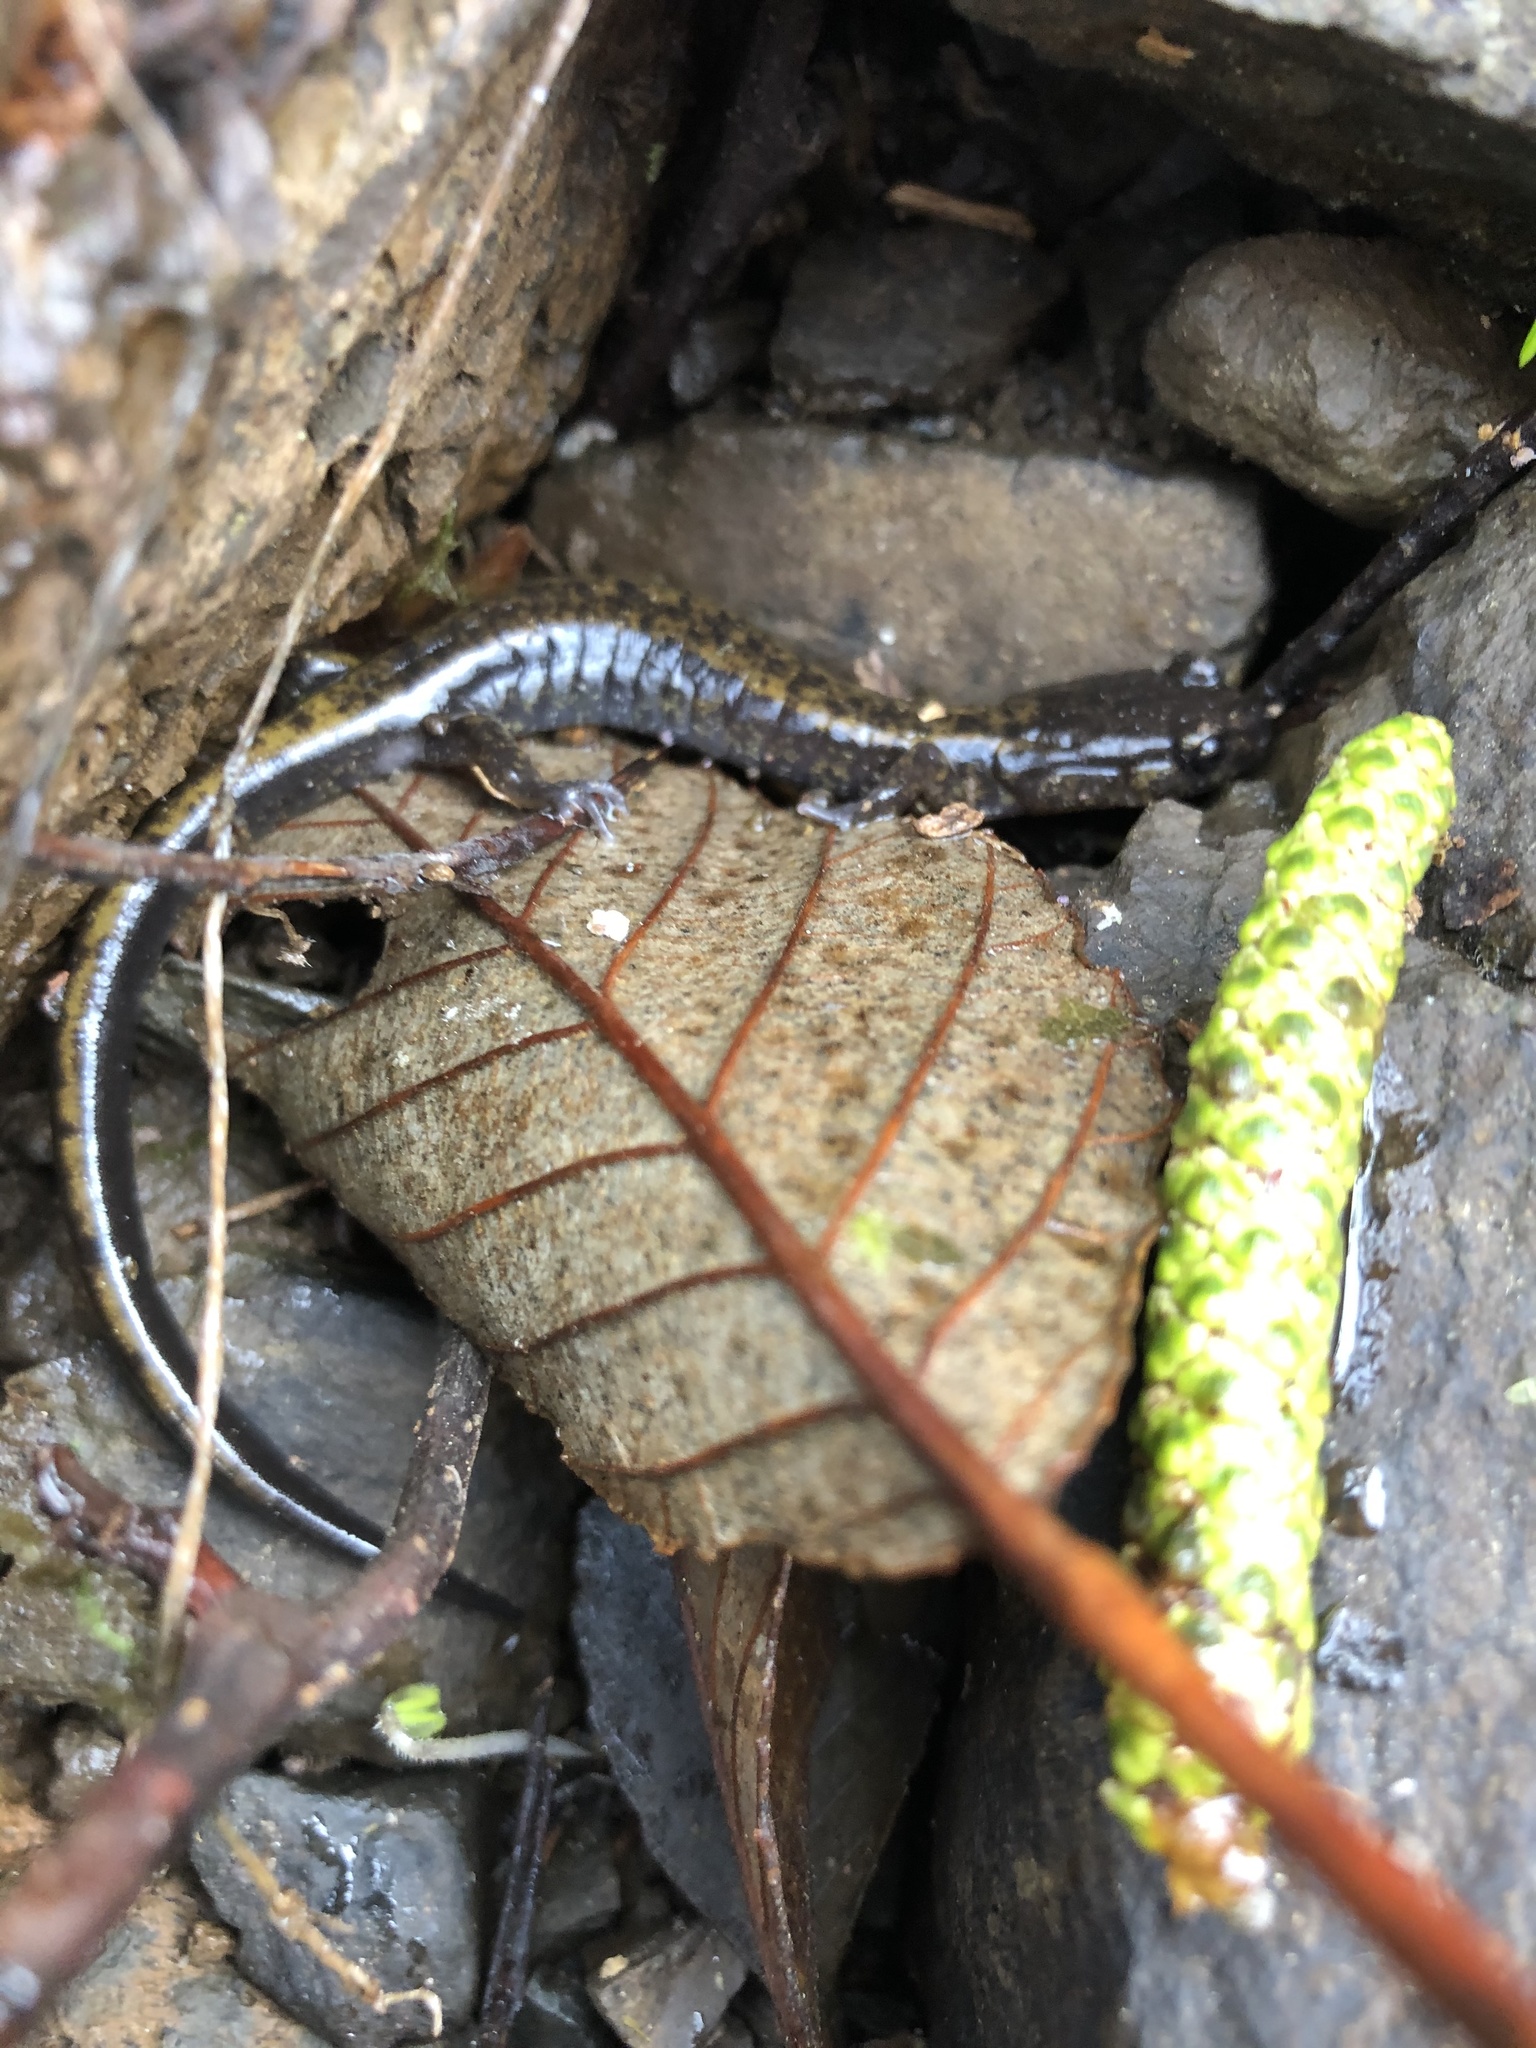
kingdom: Animalia
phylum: Chordata
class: Amphibia
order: Caudata
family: Plethodontidae
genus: Plethodon
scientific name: Plethodon dunni
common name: Dunn's salamander
